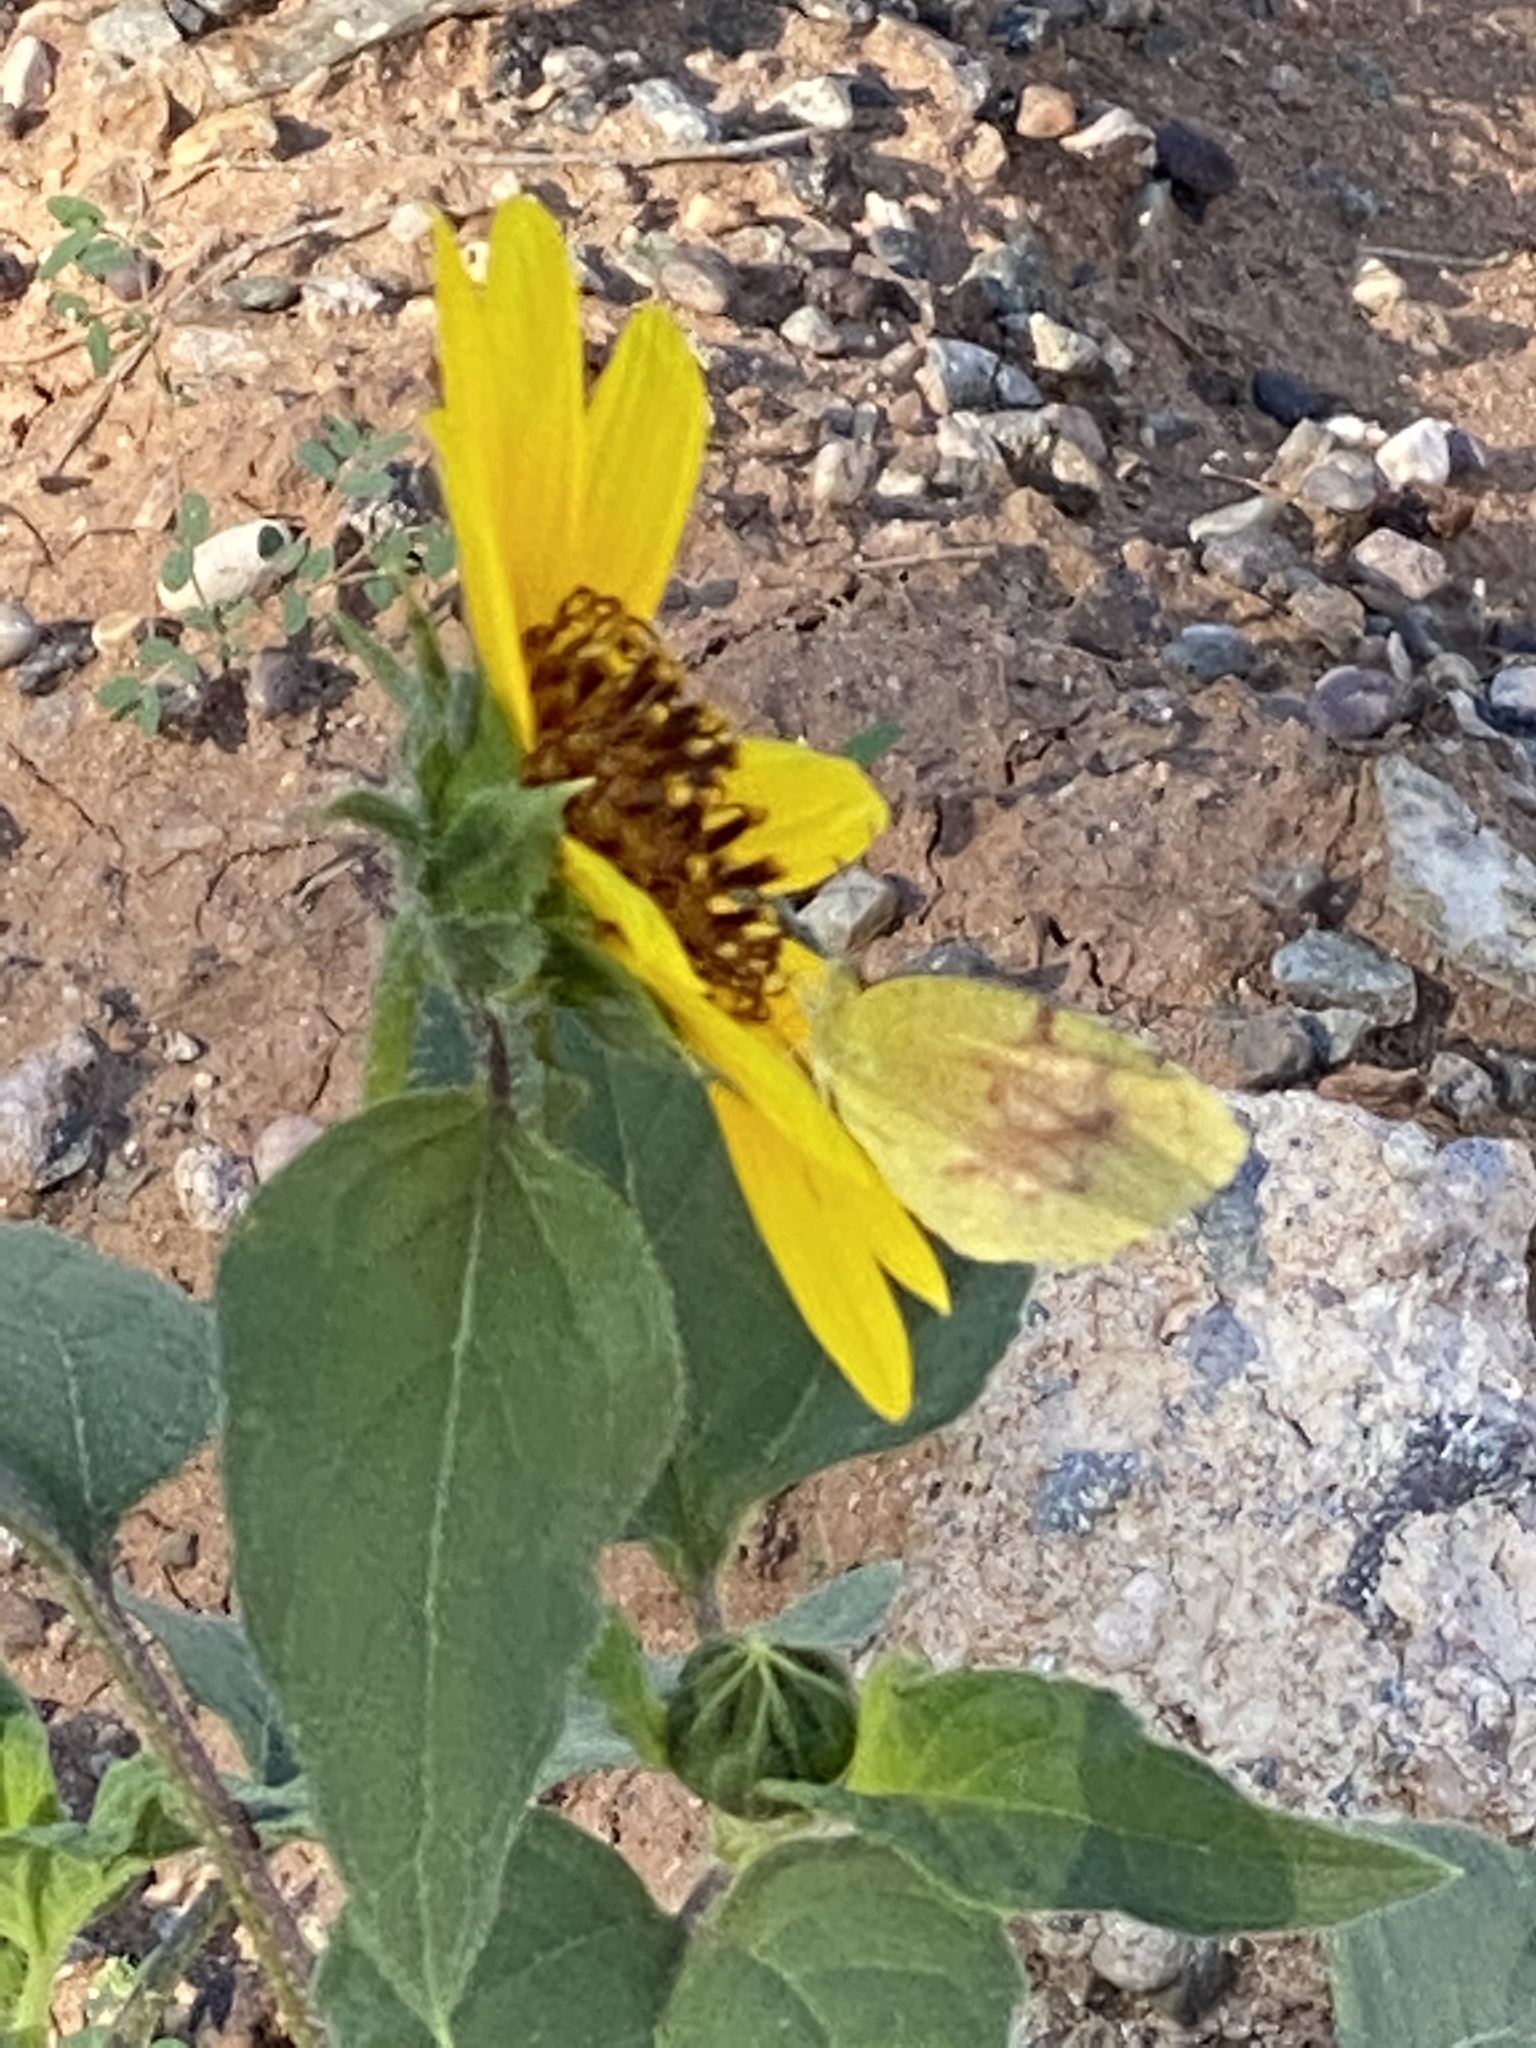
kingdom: Plantae
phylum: Tracheophyta
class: Magnoliopsida
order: Asterales
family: Asteraceae
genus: Helianthus
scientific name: Helianthus annuus
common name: Sunflower
